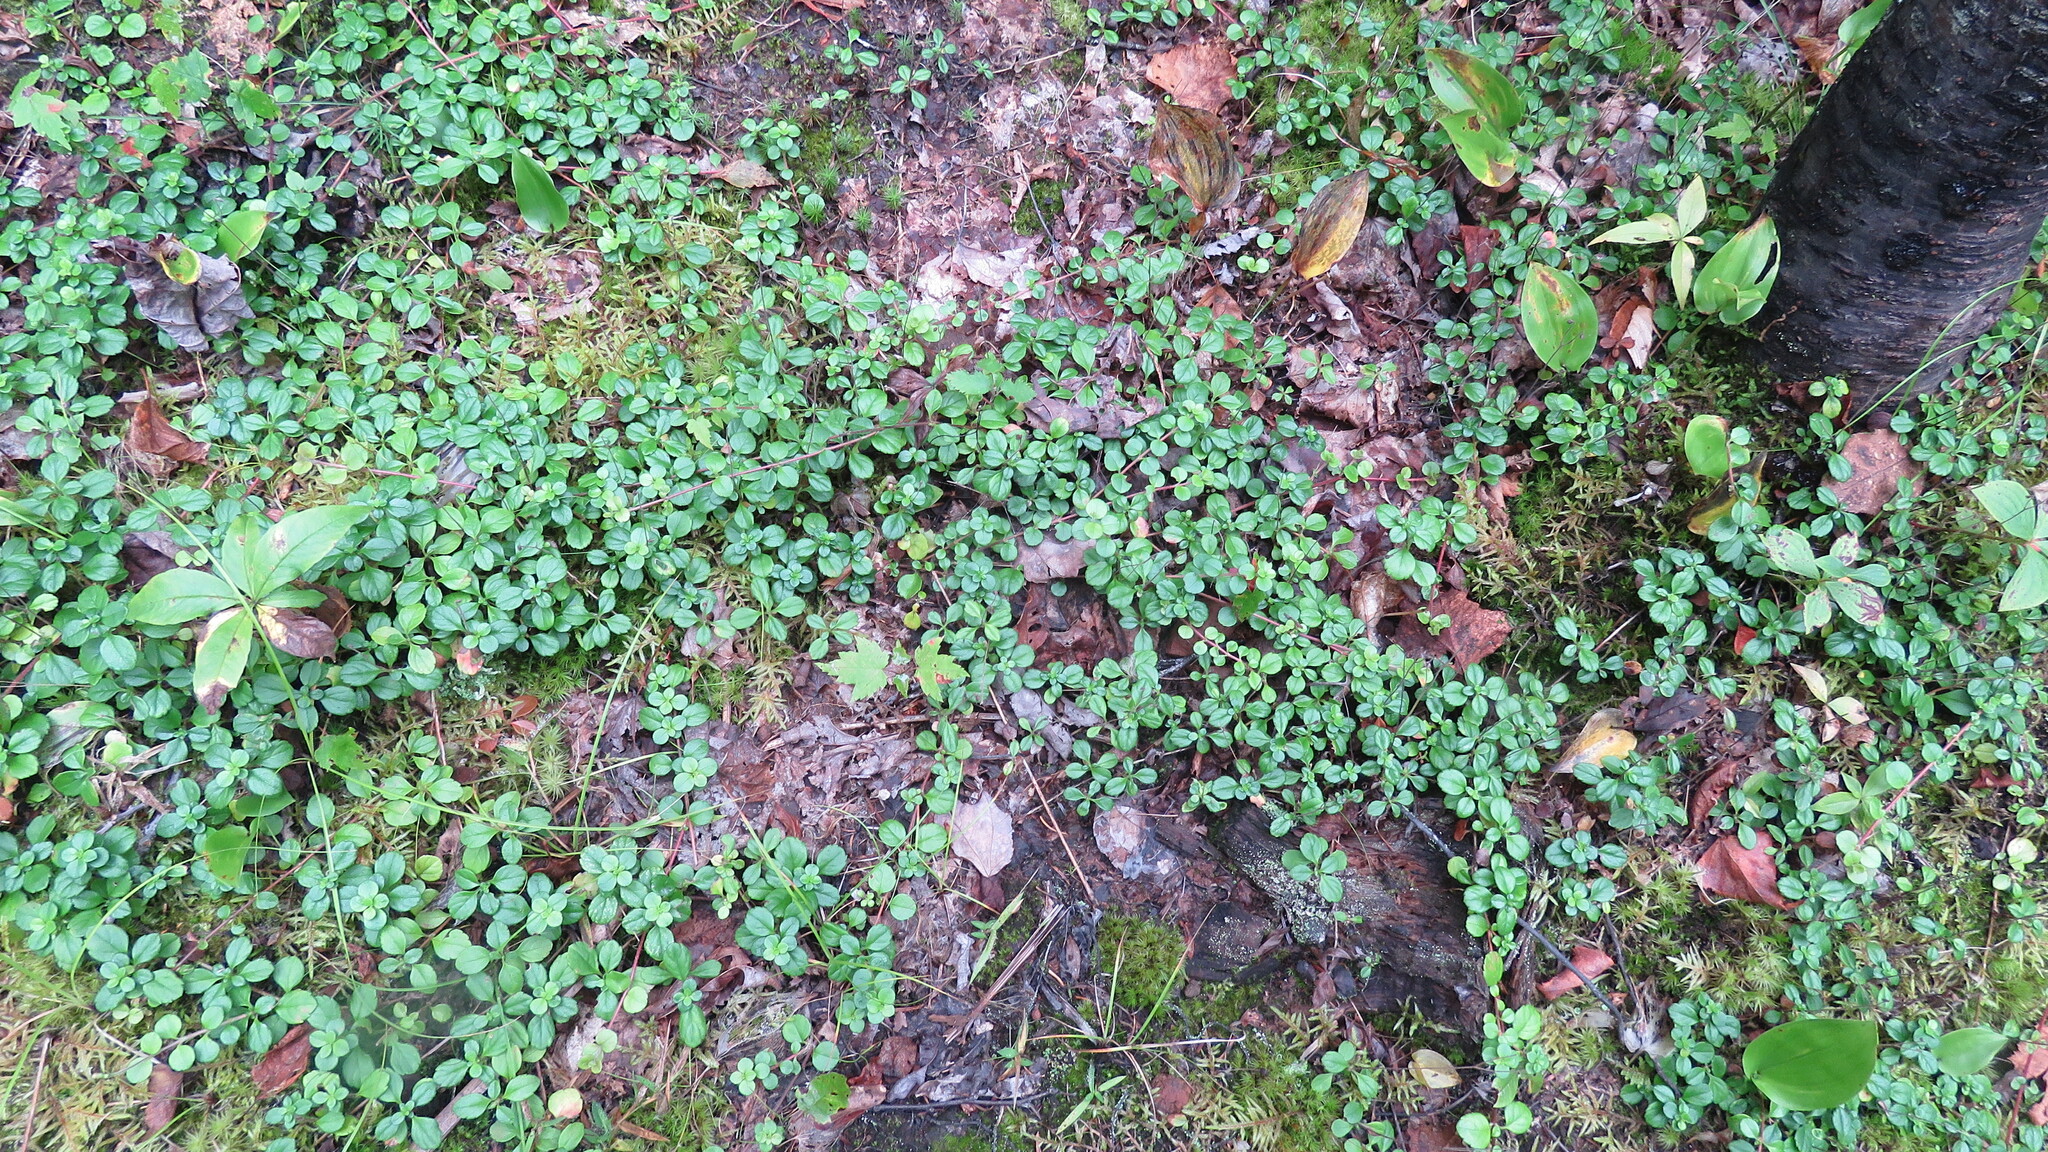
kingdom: Plantae
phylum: Tracheophyta
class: Magnoliopsida
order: Dipsacales
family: Caprifoliaceae
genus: Linnaea
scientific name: Linnaea borealis
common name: Twinflower
